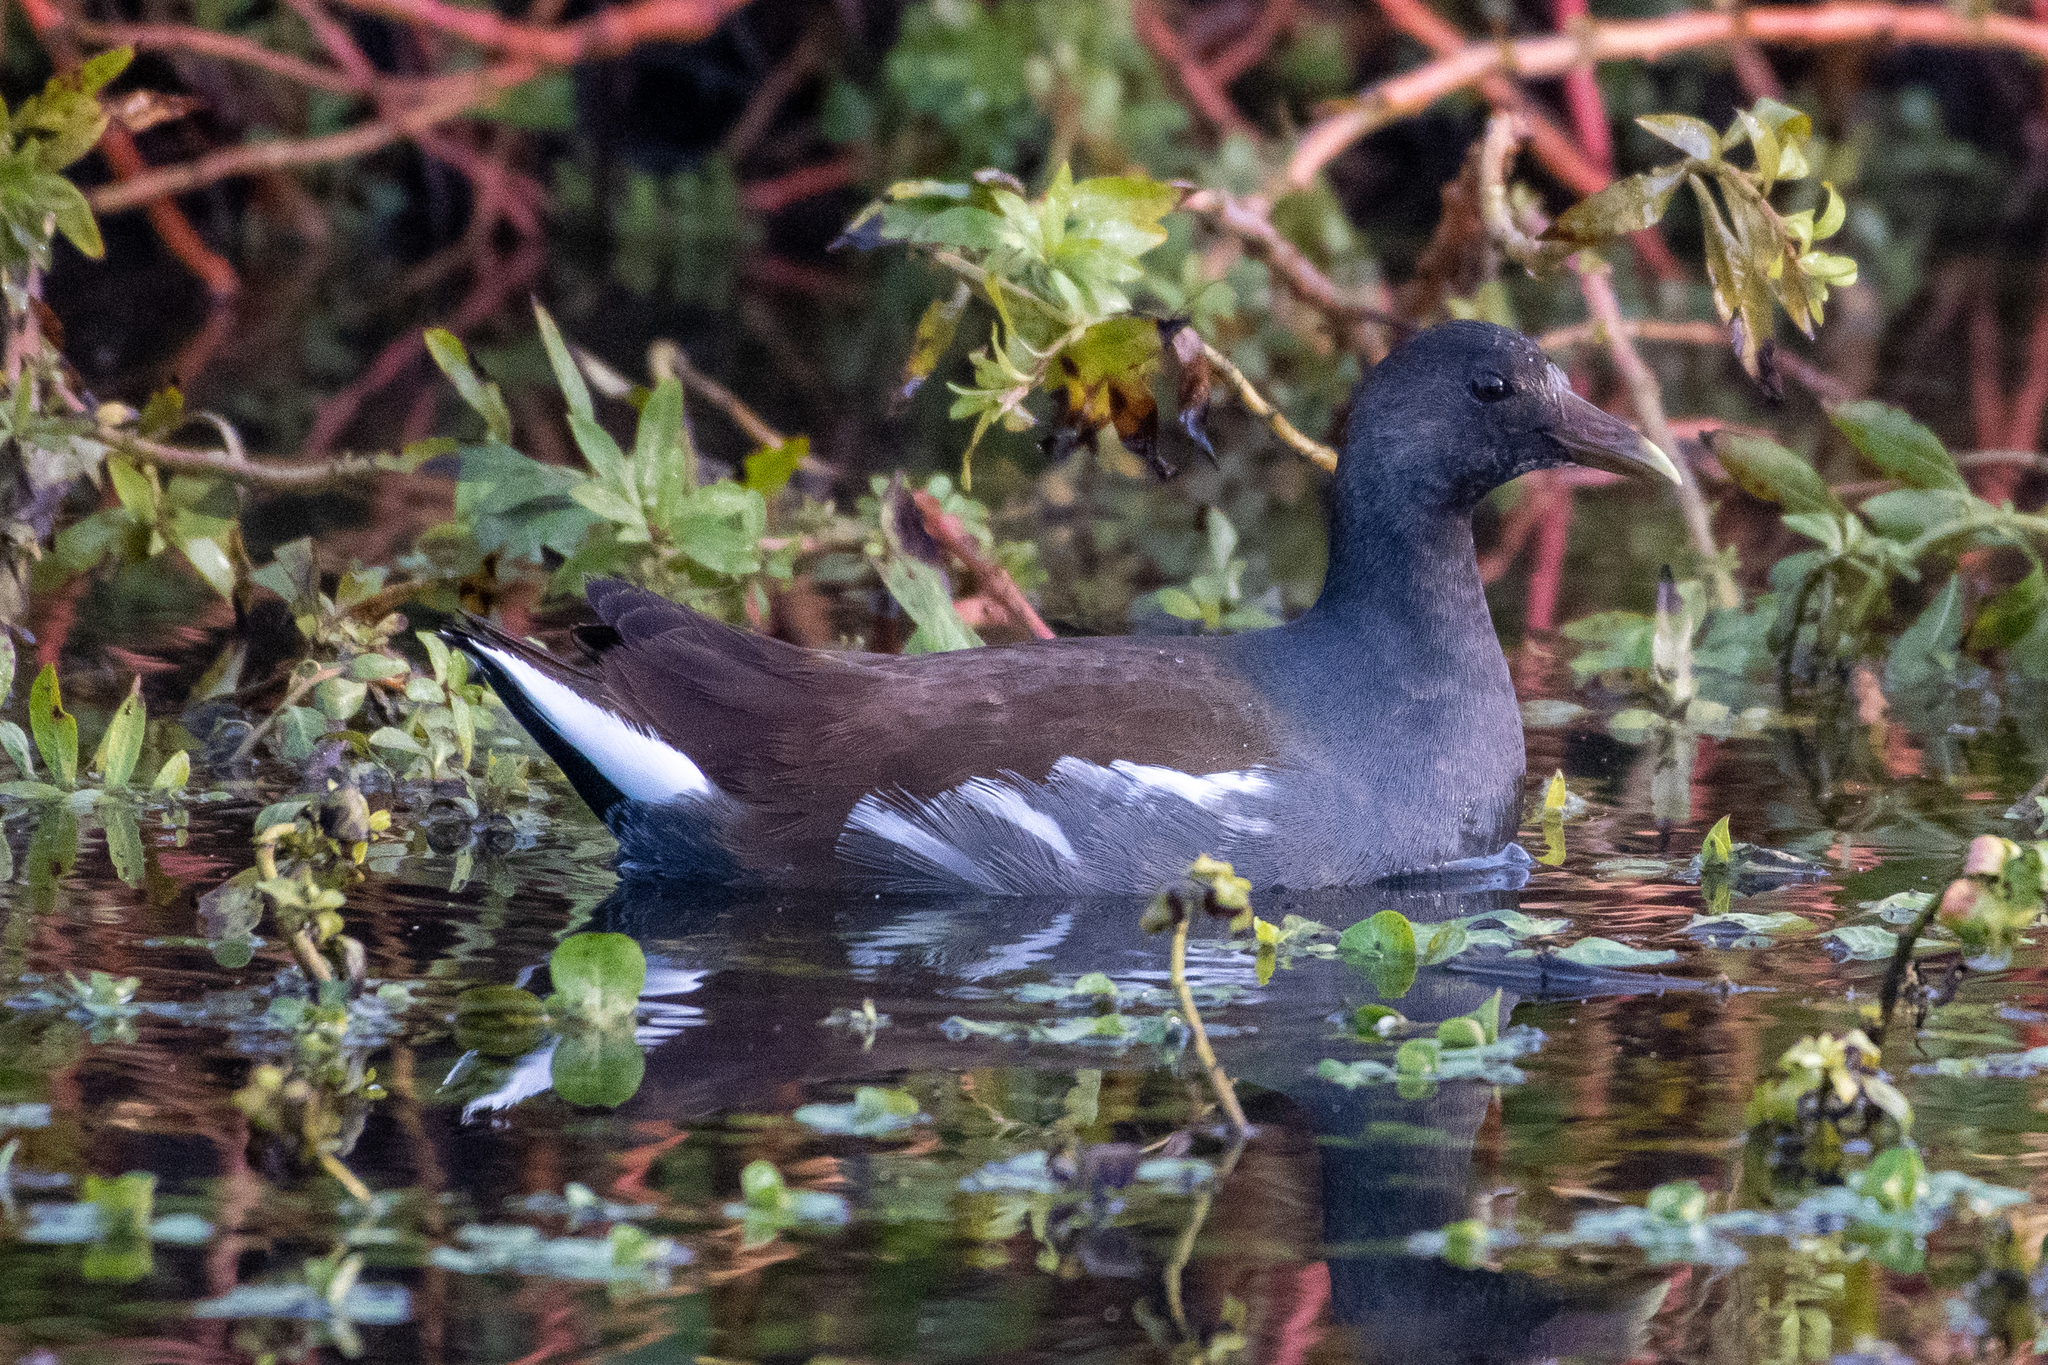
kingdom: Animalia
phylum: Chordata
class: Aves
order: Gruiformes
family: Rallidae
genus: Gallinula
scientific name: Gallinula chloropus
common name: Common moorhen
